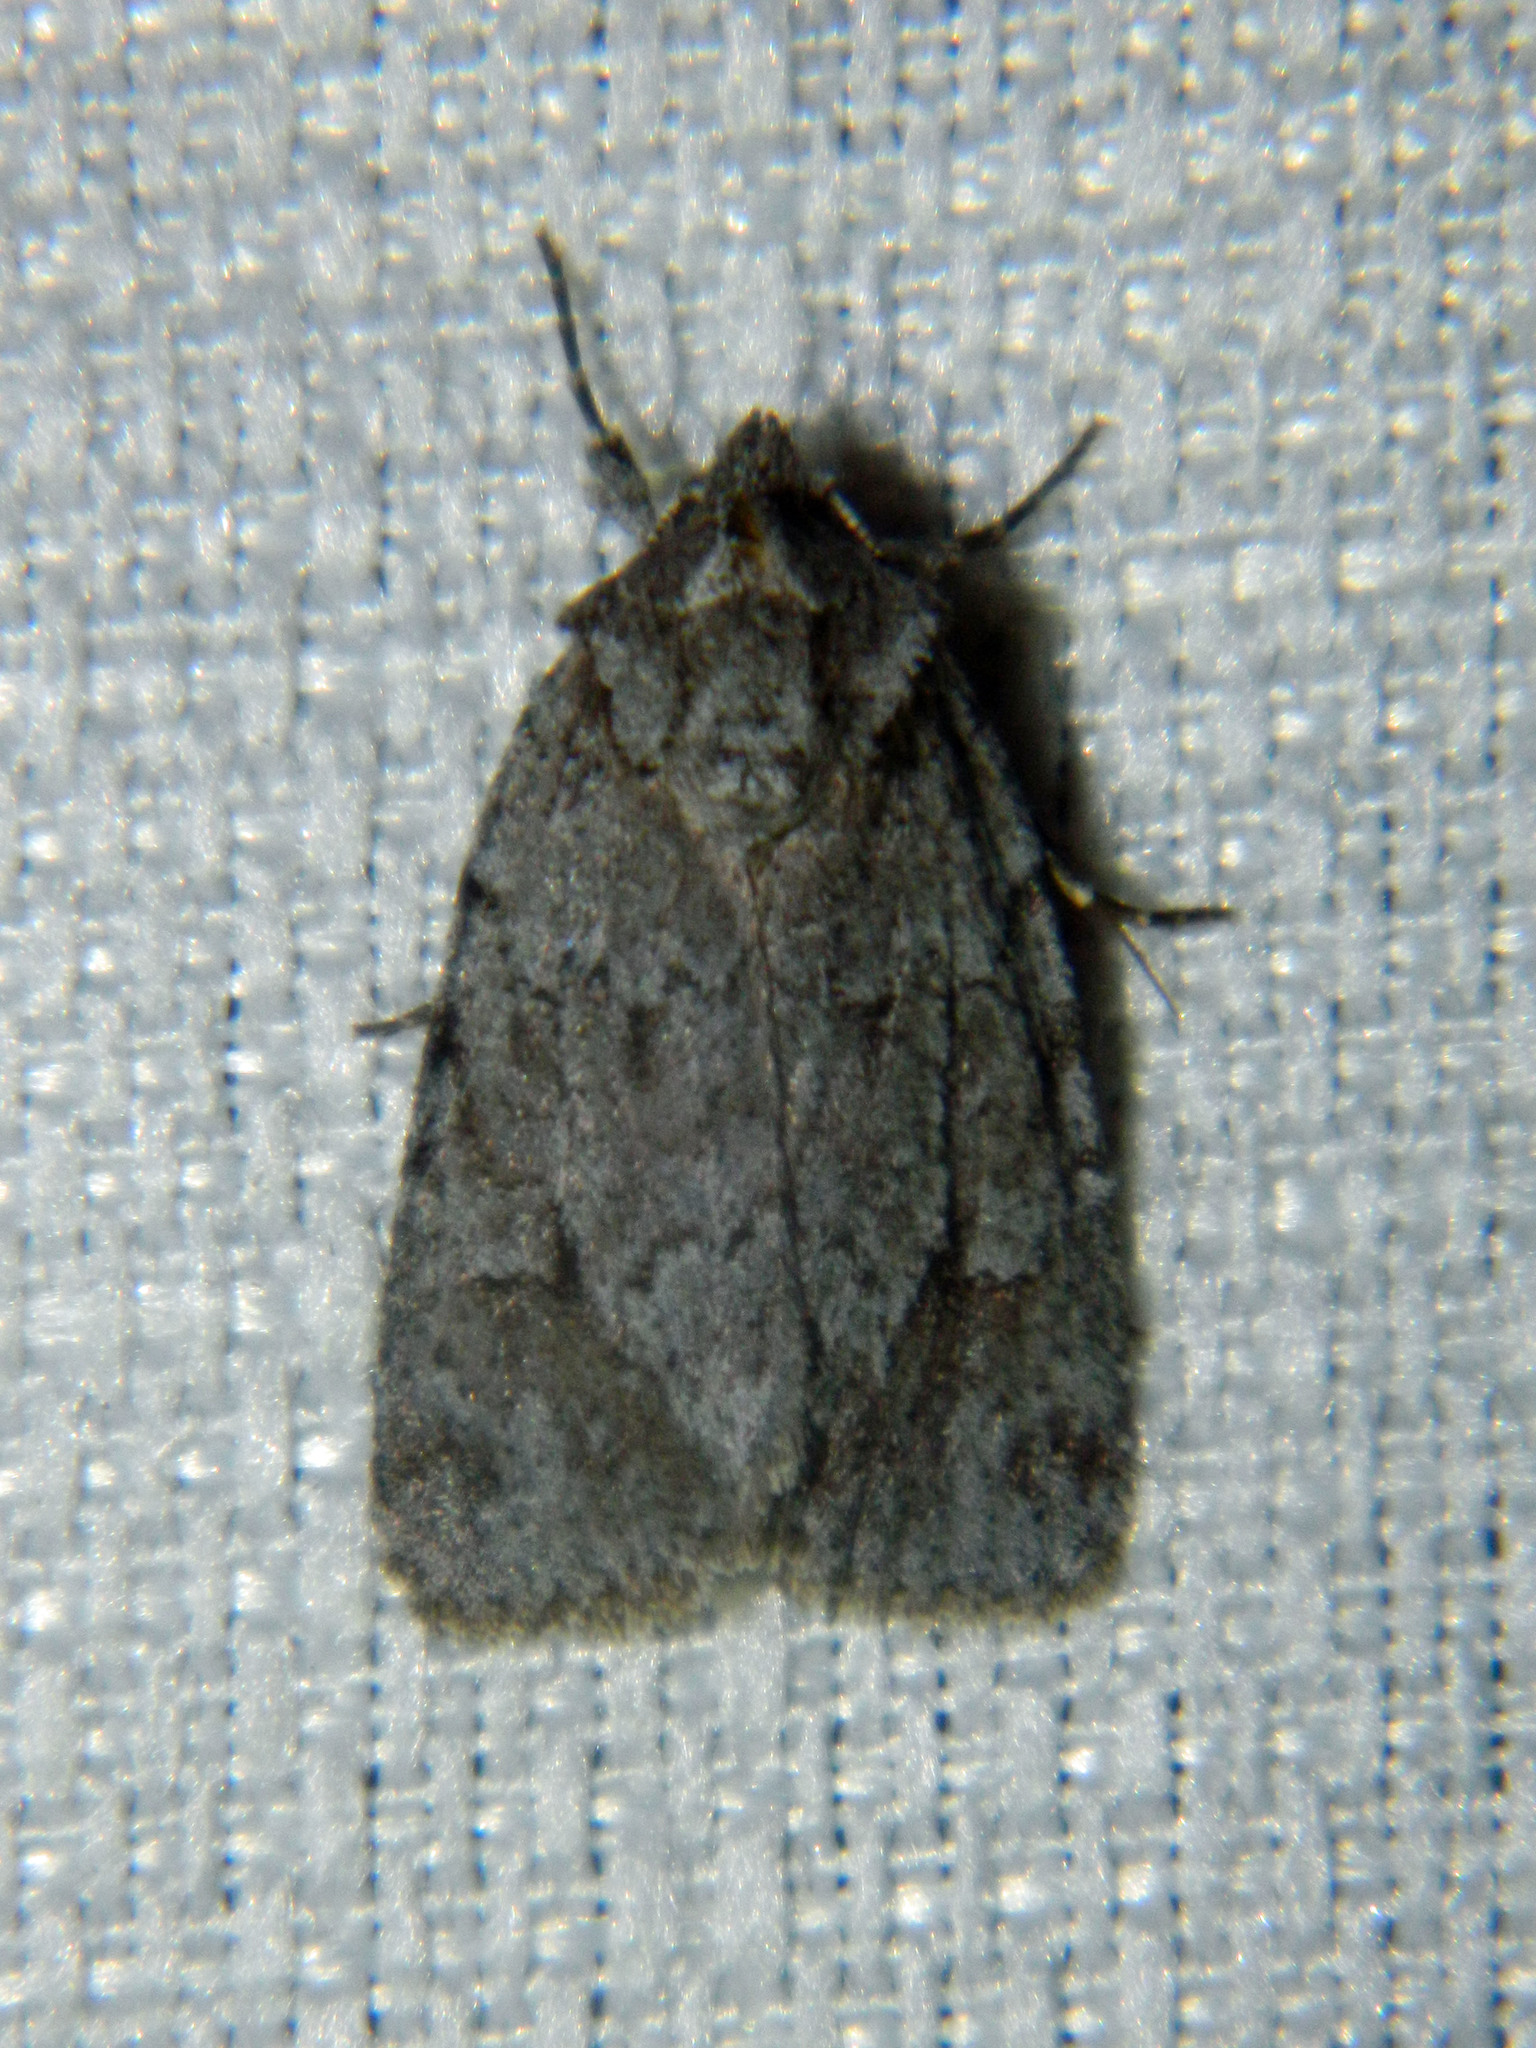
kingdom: Animalia
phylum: Arthropoda
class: Insecta
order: Lepidoptera
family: Noctuidae
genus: Sympistis
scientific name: Sympistis dentata
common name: Blueberry sallow
